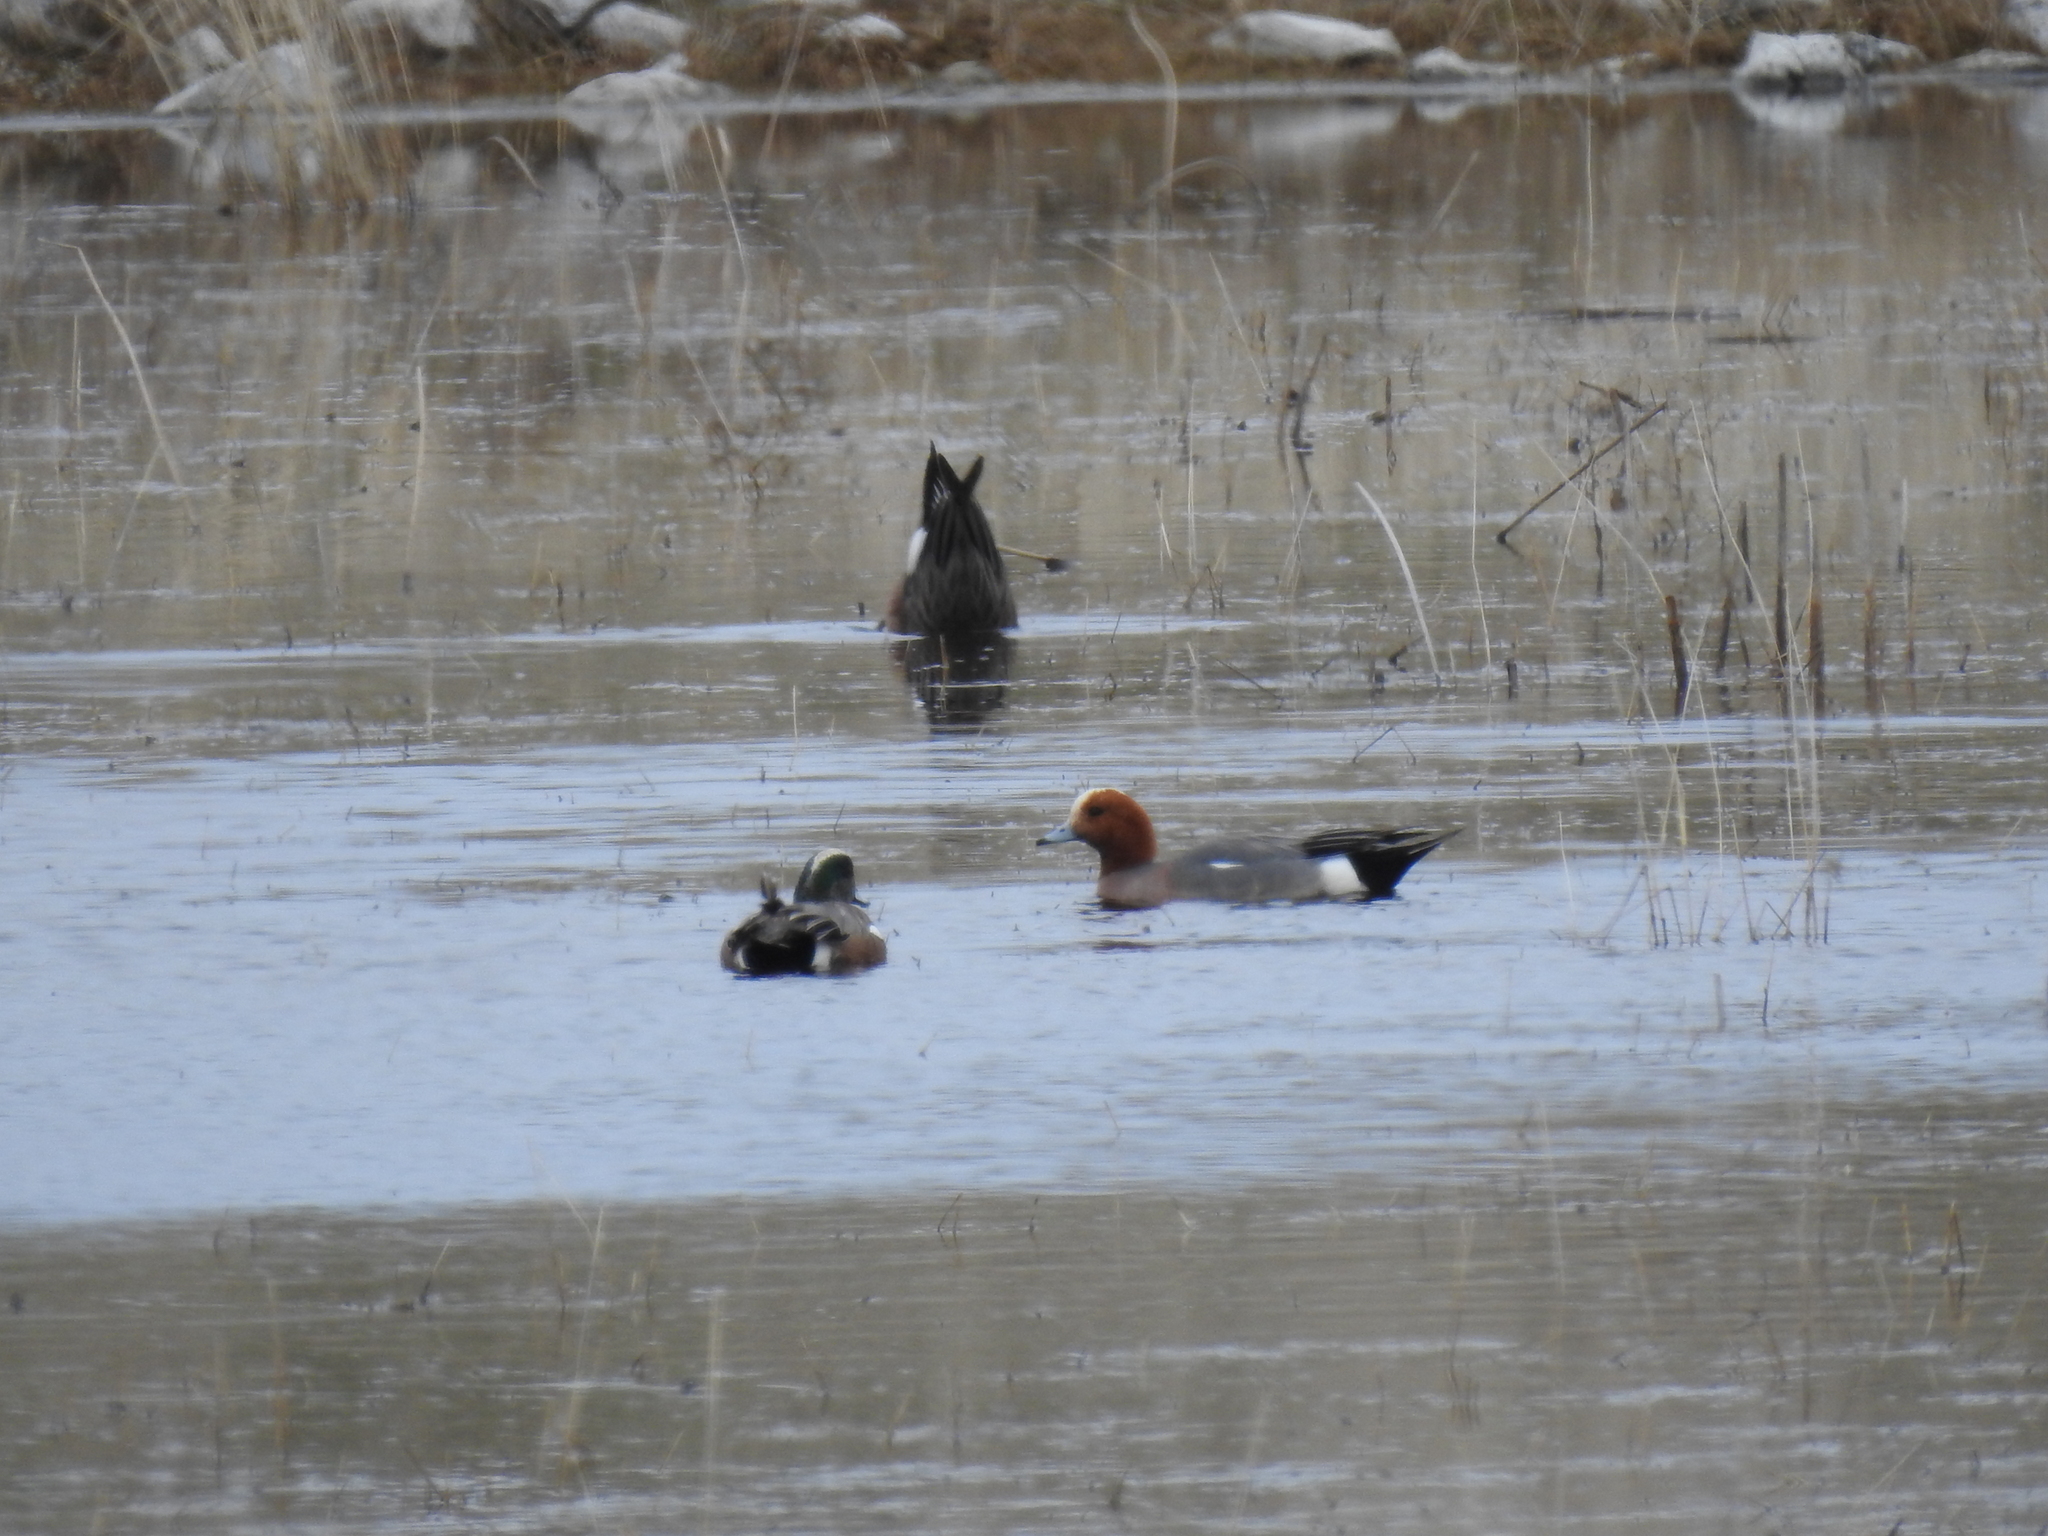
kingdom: Animalia
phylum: Chordata
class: Aves
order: Anseriformes
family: Anatidae
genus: Mareca
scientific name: Mareca penelope
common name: Eurasian wigeon
